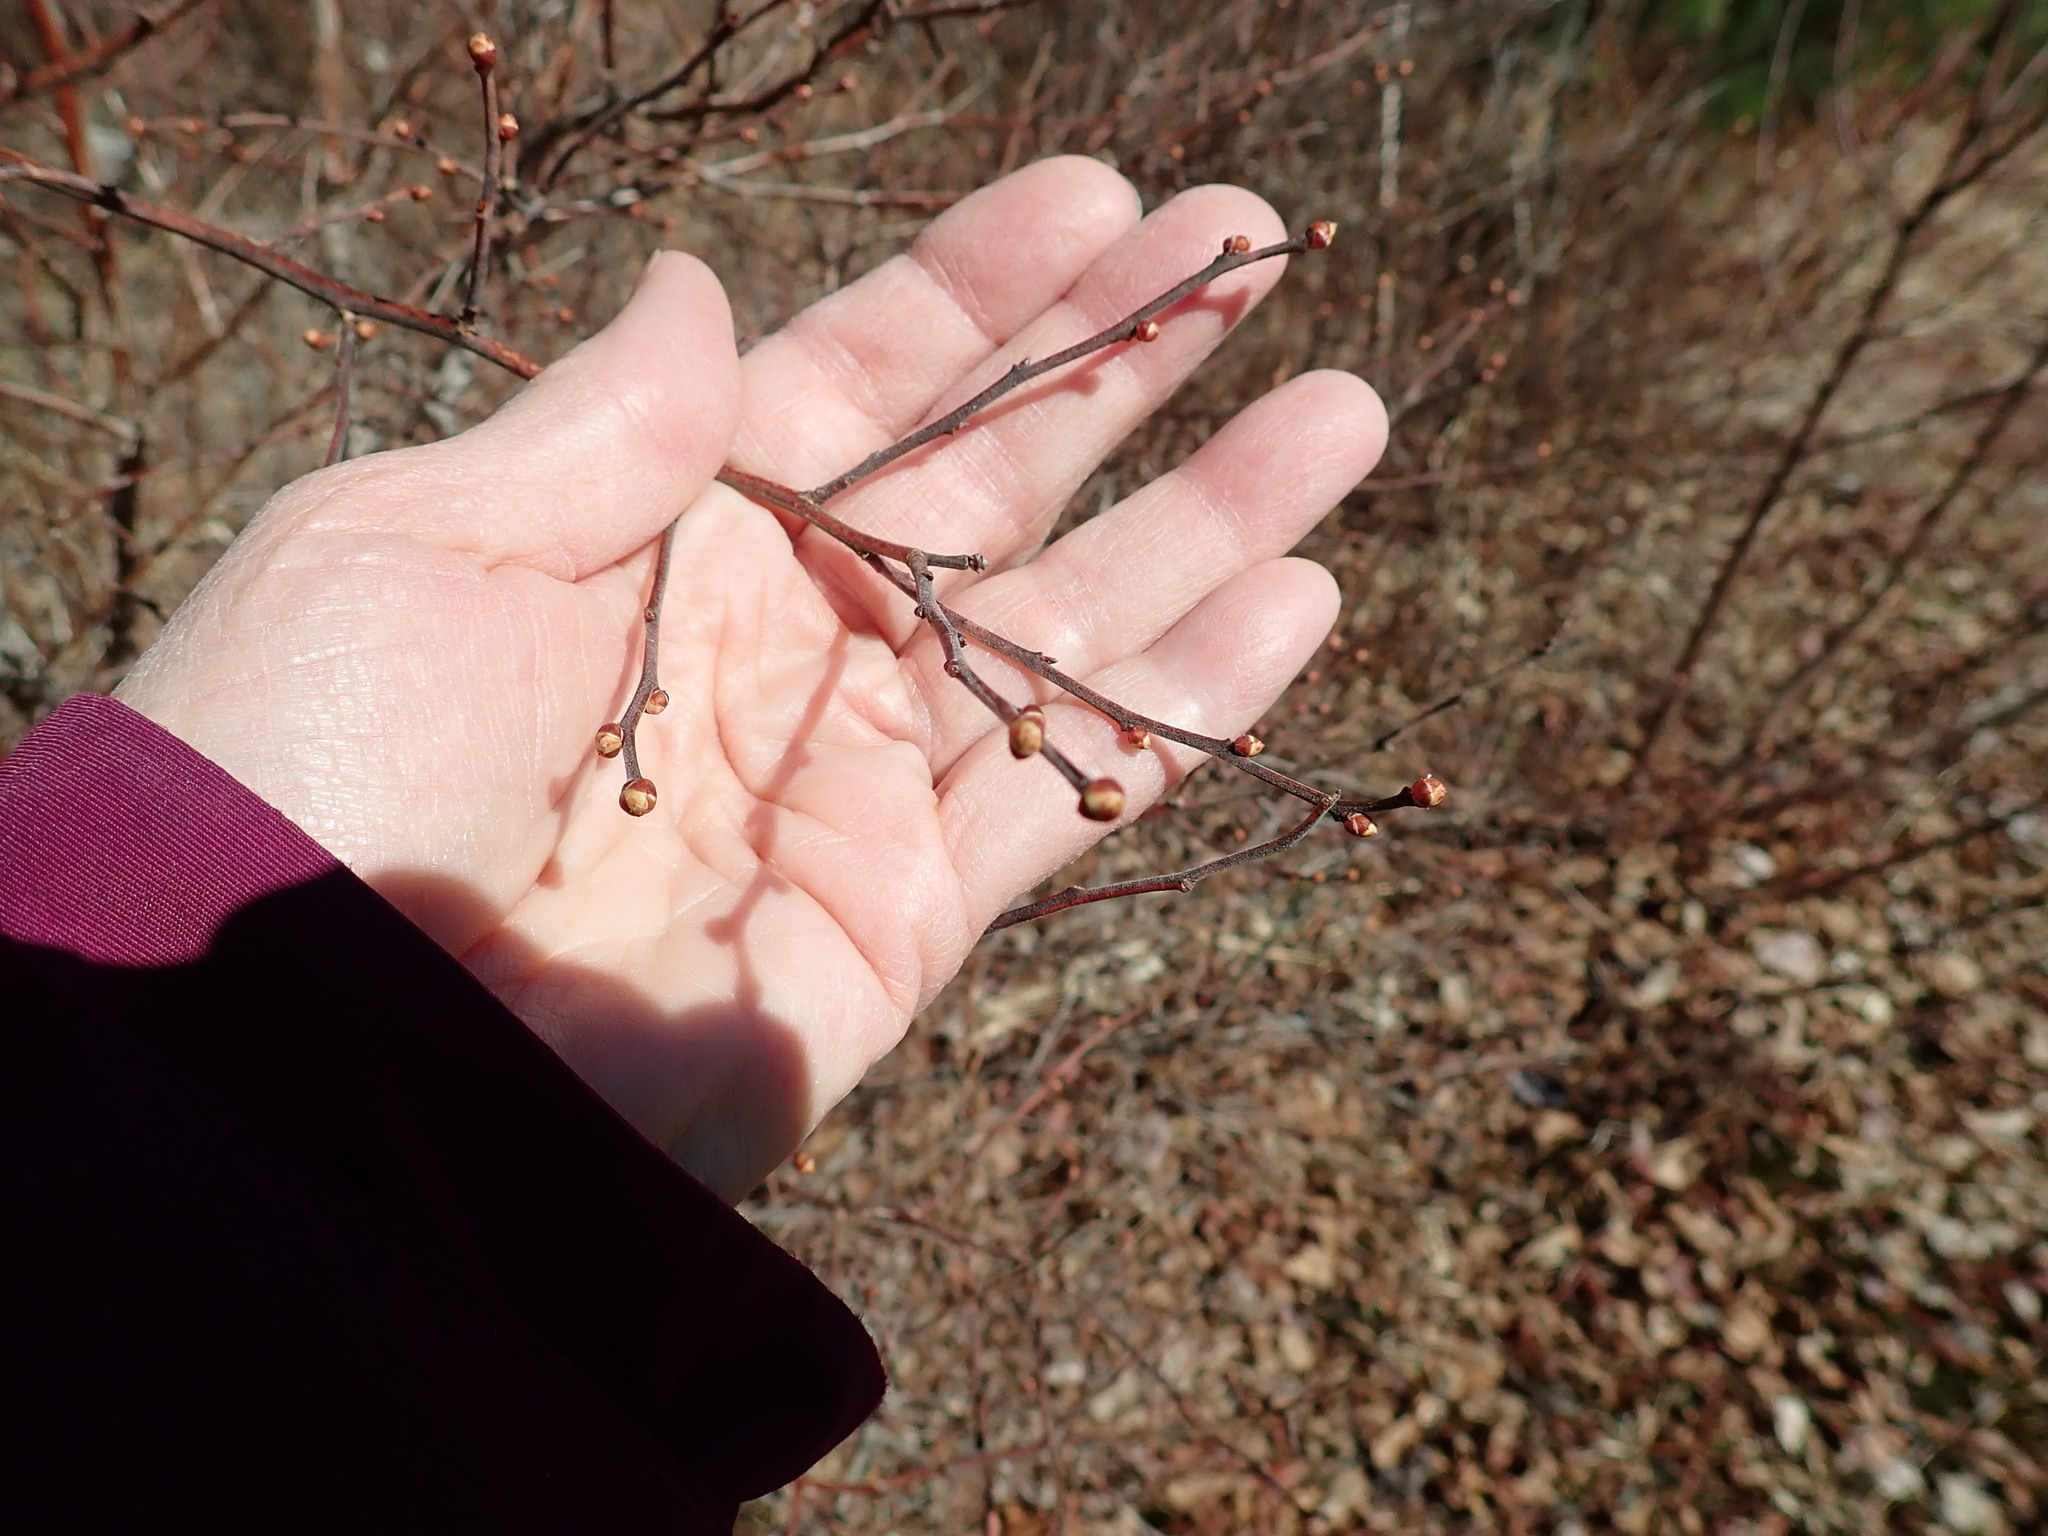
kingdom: Plantae
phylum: Tracheophyta
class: Magnoliopsida
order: Ericales
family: Ericaceae
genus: Vaccinium
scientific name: Vaccinium corymbosum
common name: Blueberry
